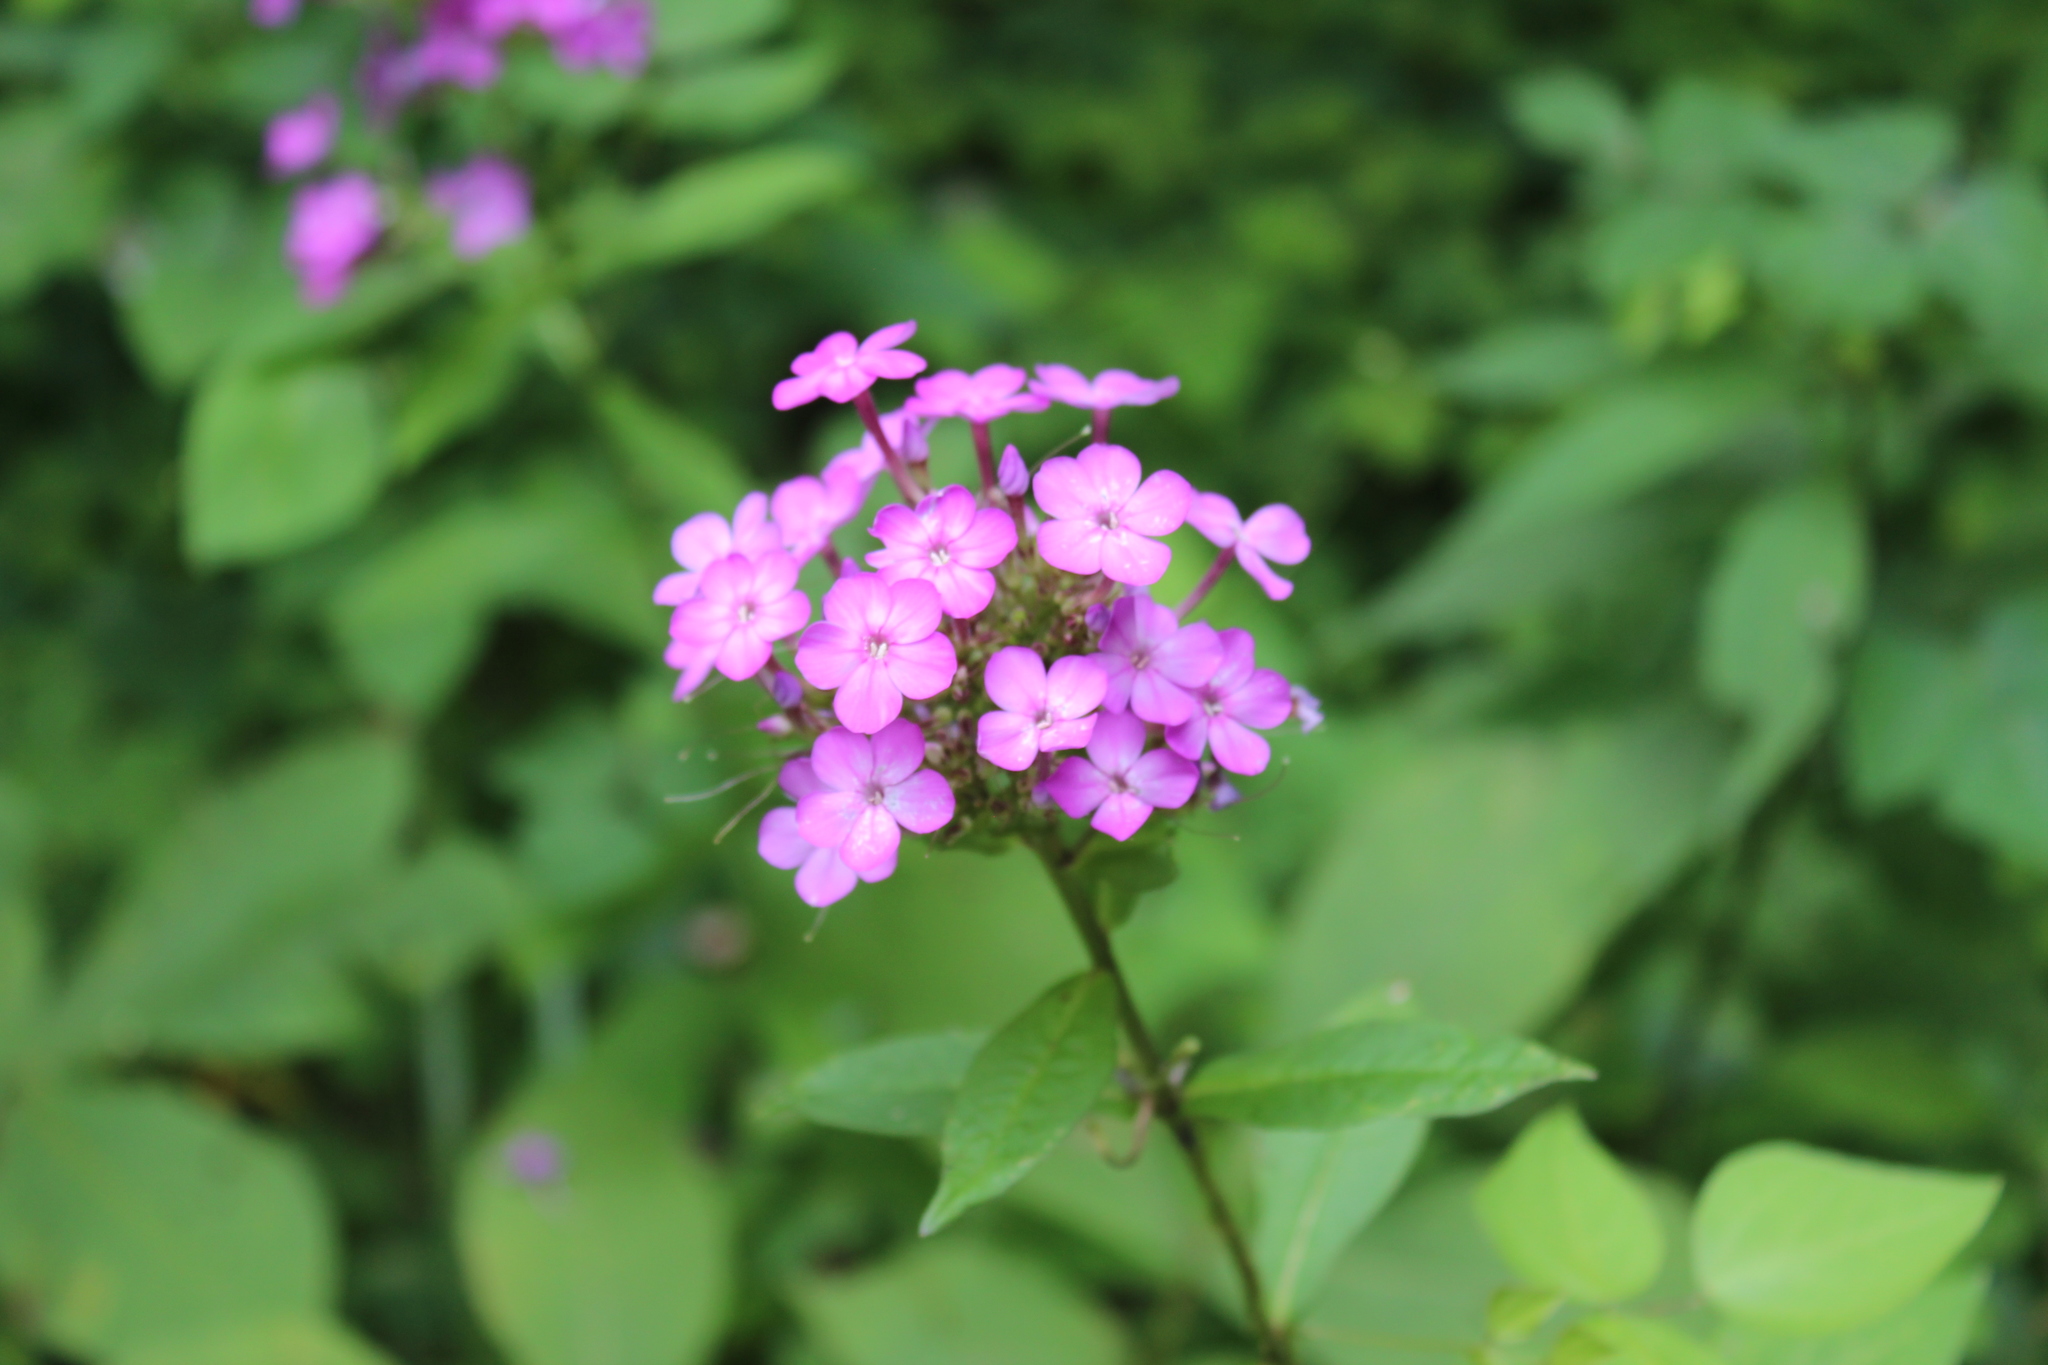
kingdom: Plantae
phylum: Tracheophyta
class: Magnoliopsida
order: Ericales
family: Polemoniaceae
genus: Phlox
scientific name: Phlox paniculata
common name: Fall phlox
